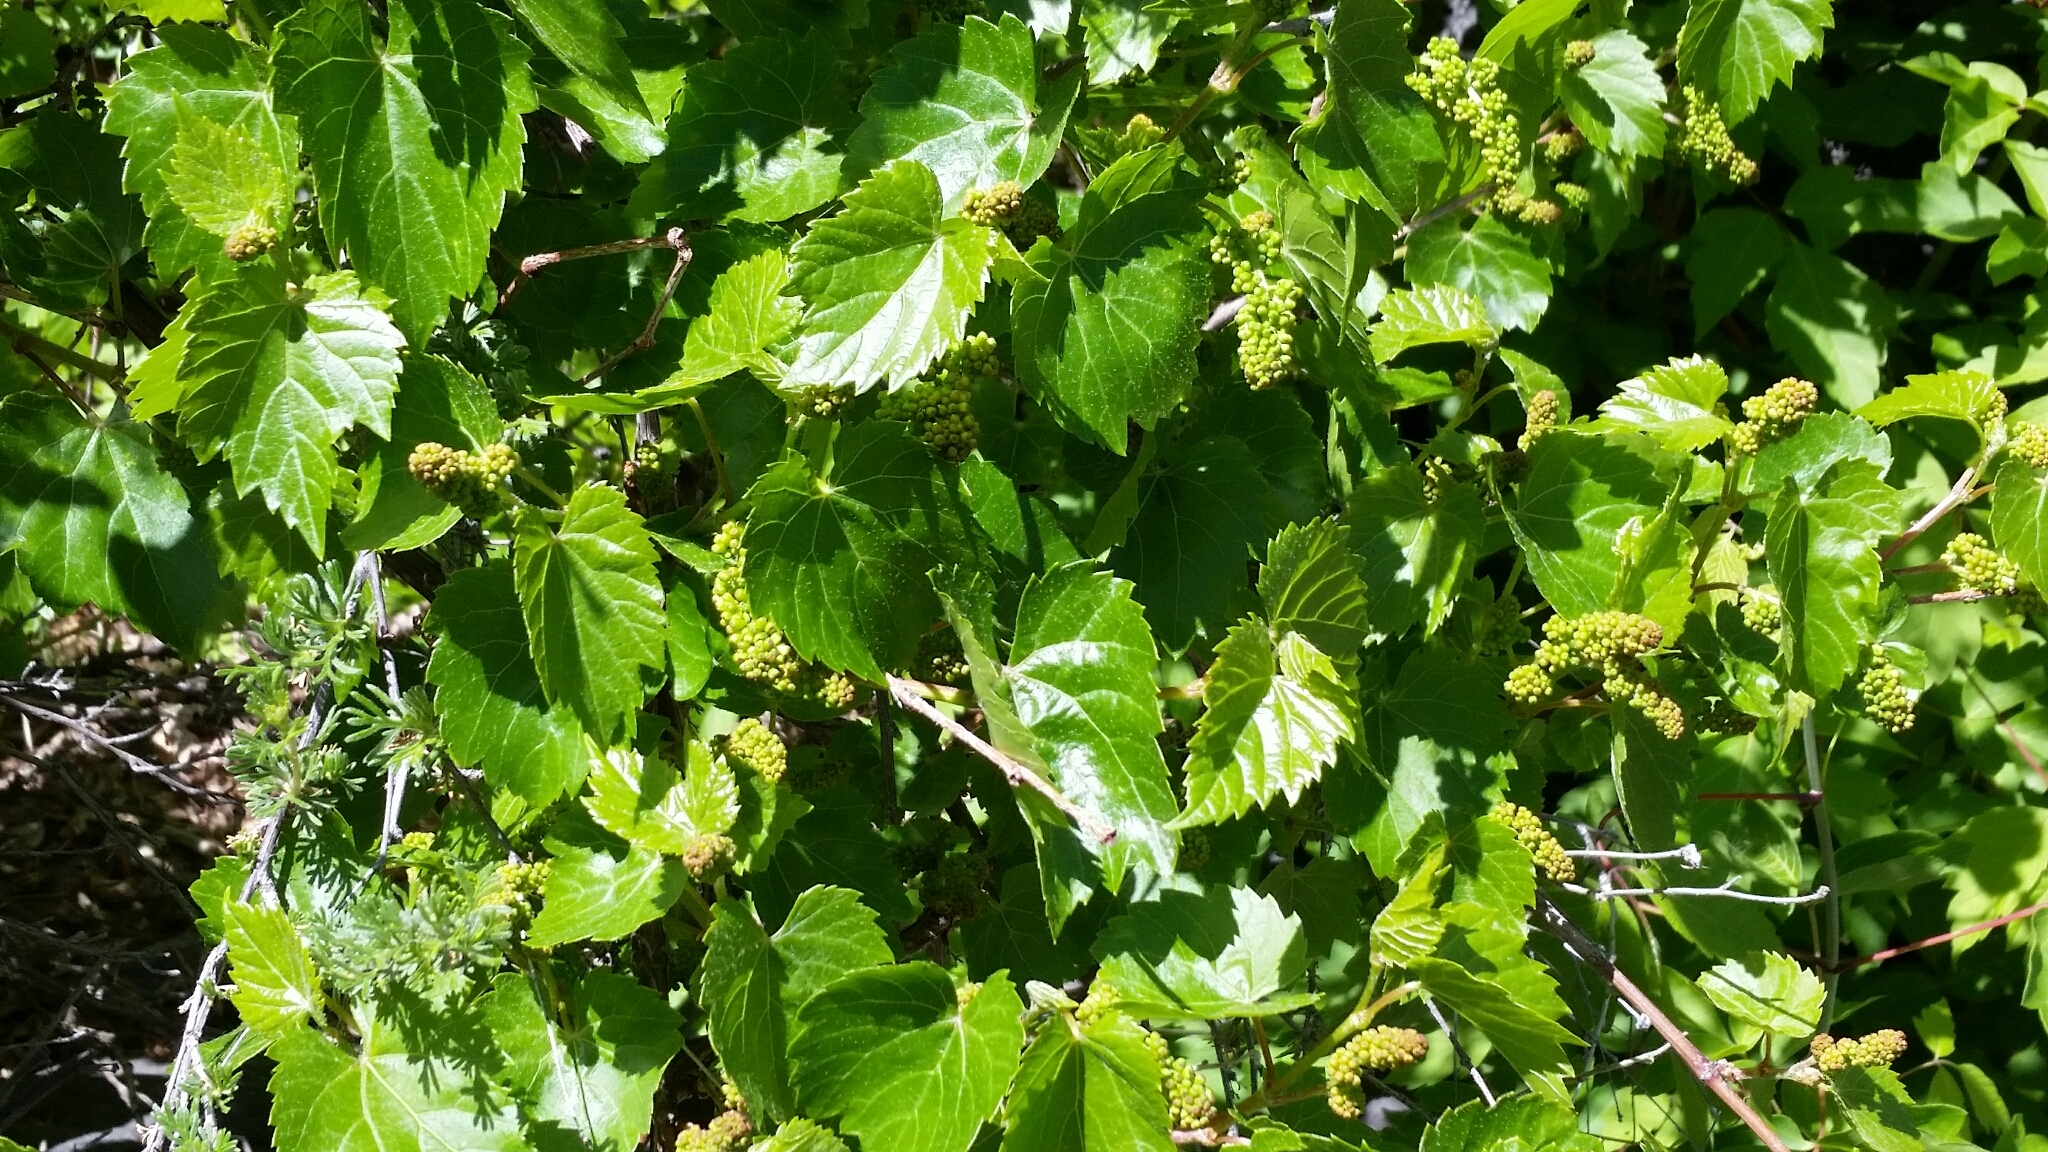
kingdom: Plantae
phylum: Tracheophyta
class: Magnoliopsida
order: Vitales
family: Vitaceae
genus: Vitis
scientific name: Vitis arizonica
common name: Canyon grape
